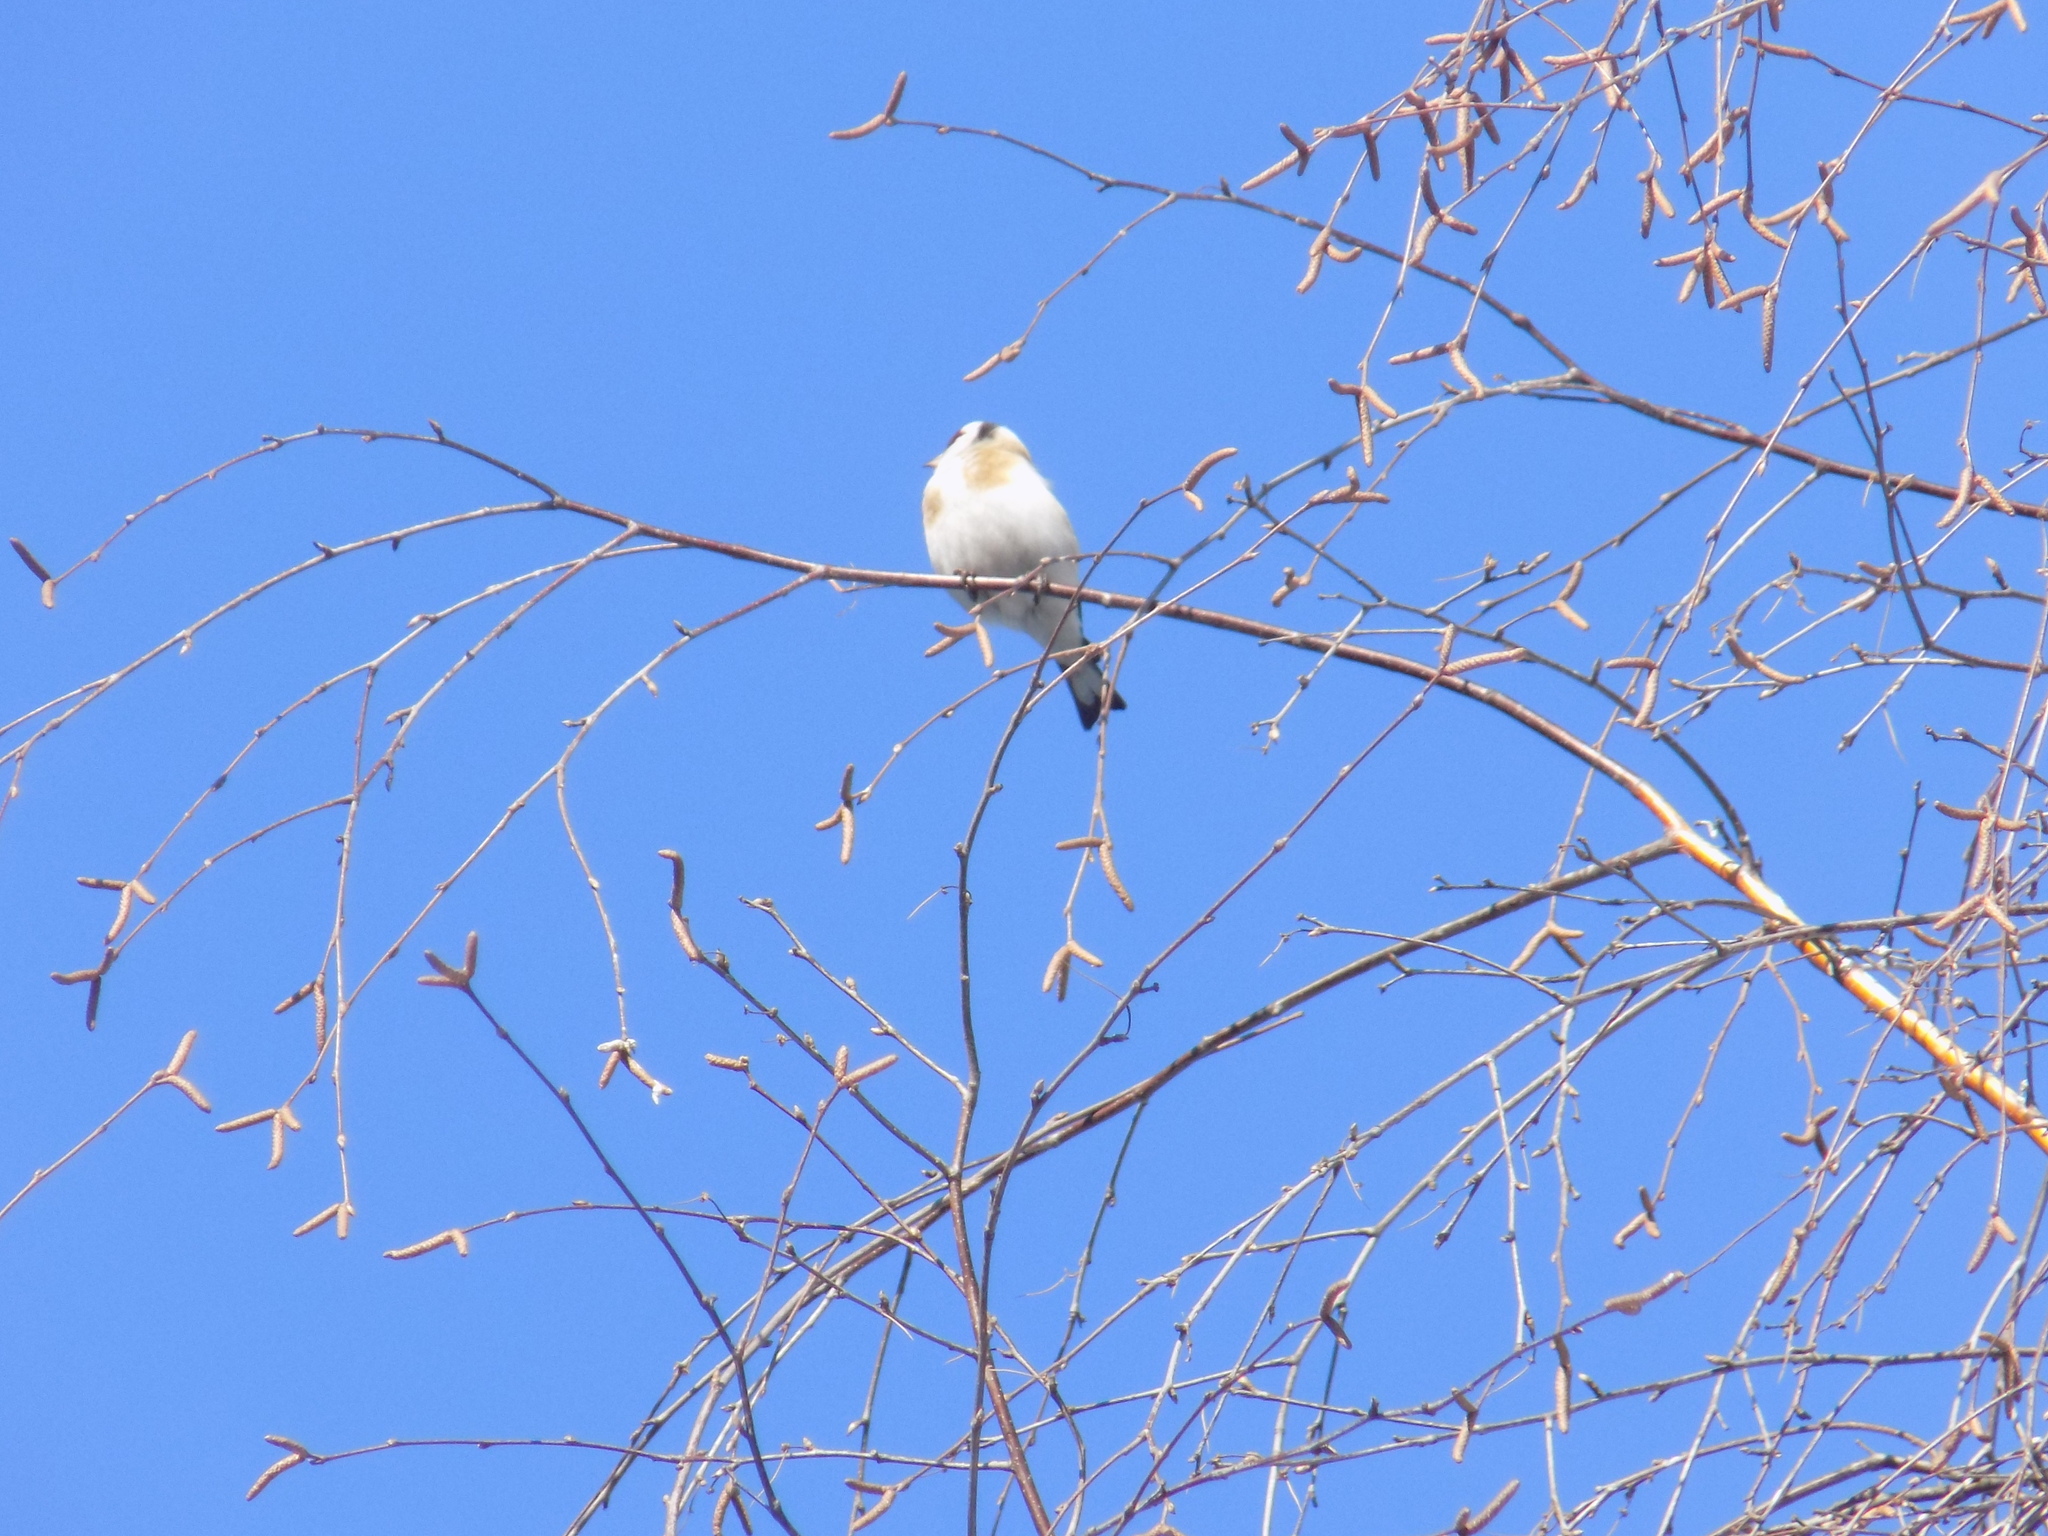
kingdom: Animalia
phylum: Chordata
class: Aves
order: Passeriformes
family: Fringillidae
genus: Carduelis
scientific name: Carduelis carduelis
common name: European goldfinch
